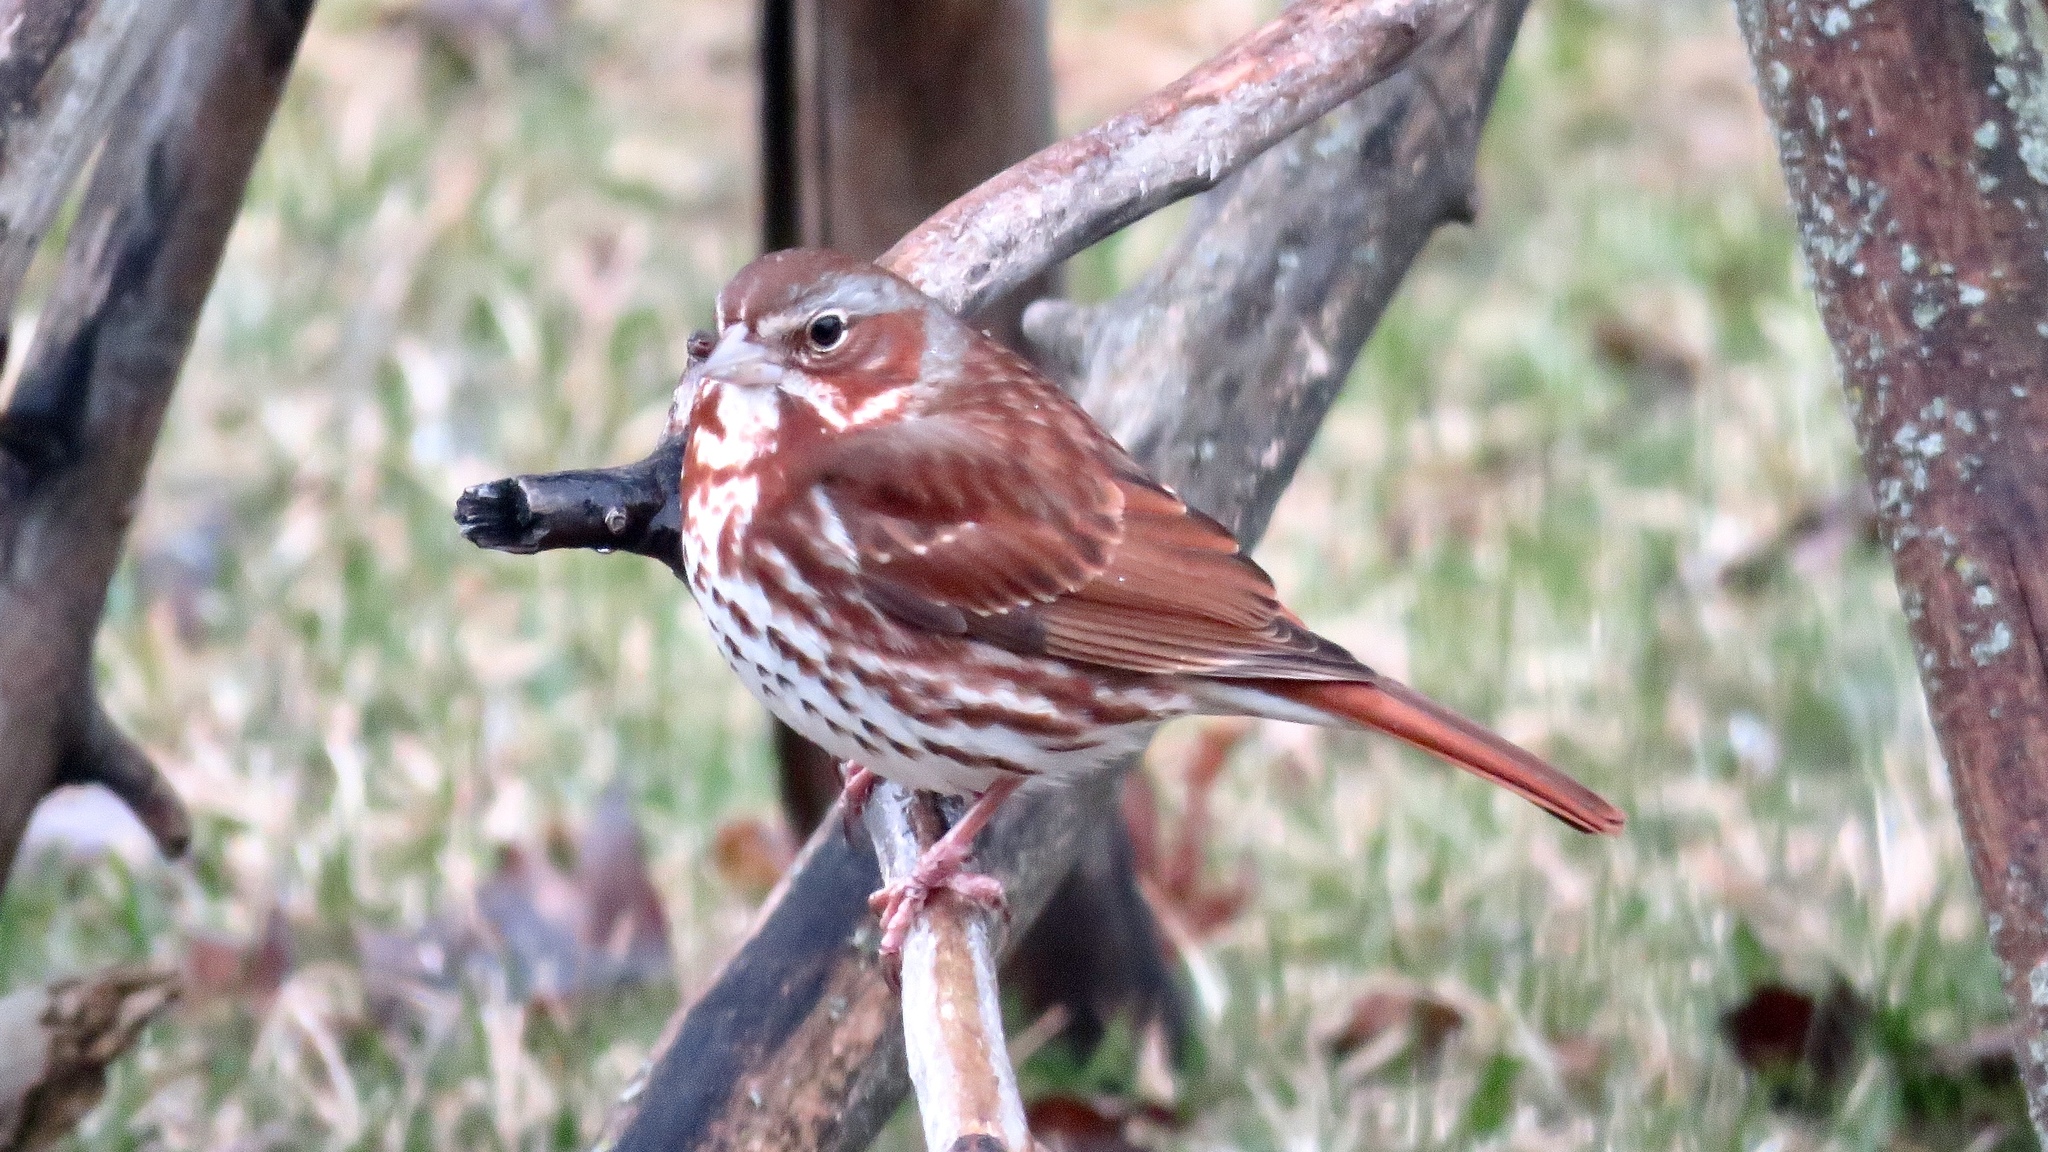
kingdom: Animalia
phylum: Chordata
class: Aves
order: Passeriformes
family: Passerellidae
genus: Passerella
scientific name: Passerella iliaca
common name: Fox sparrow
